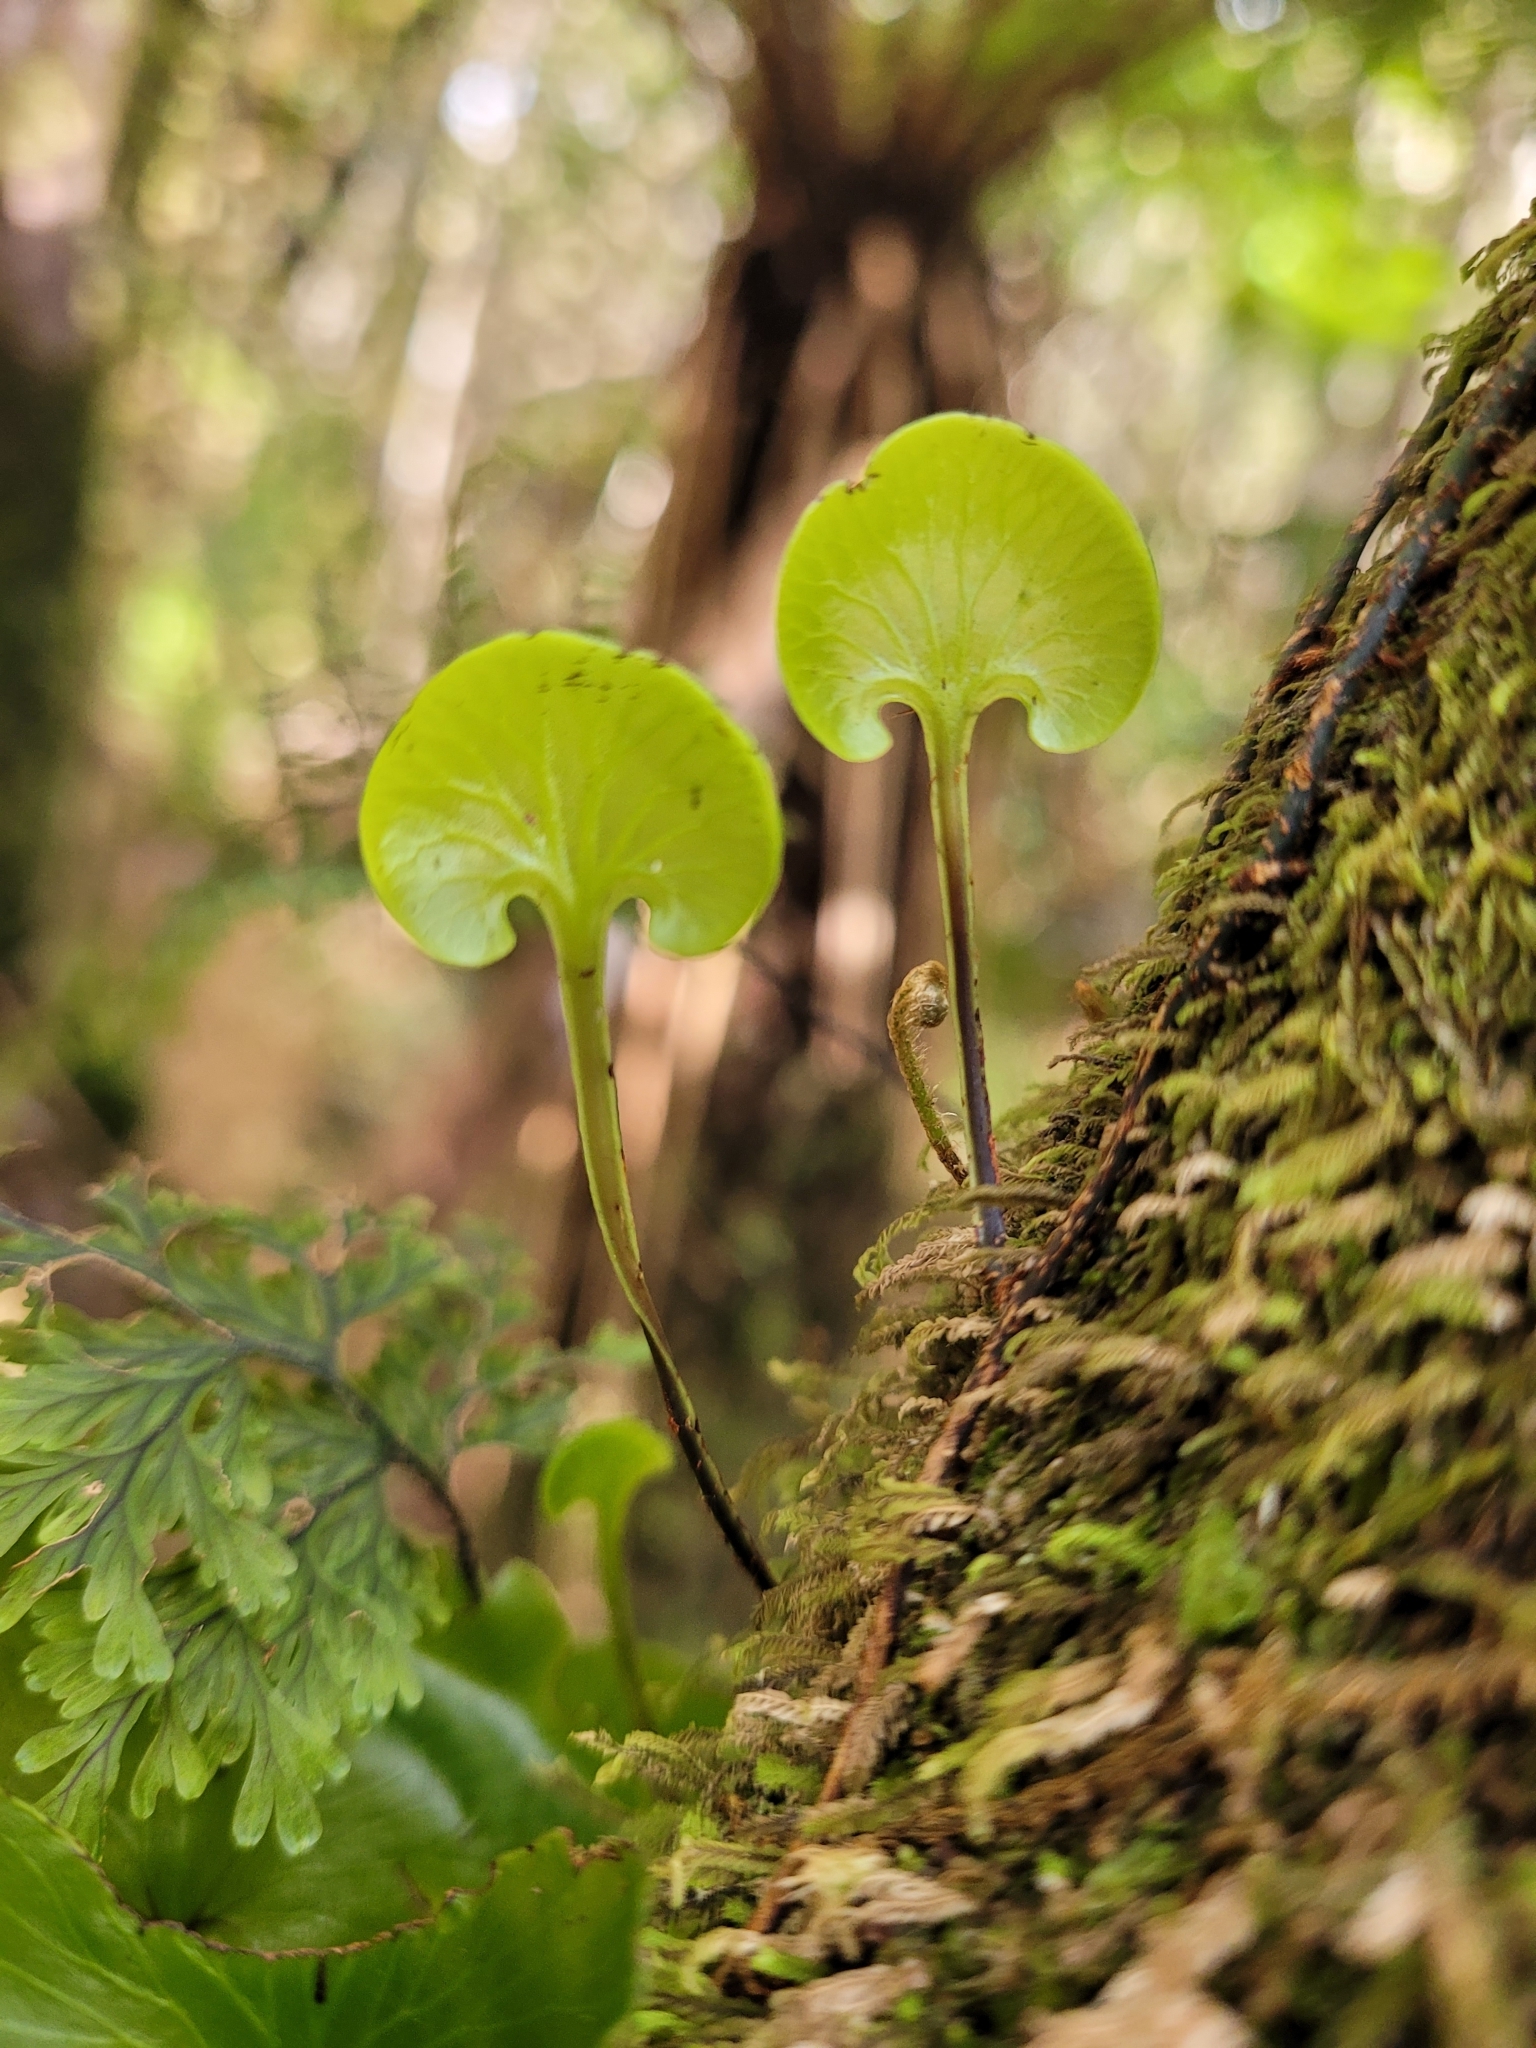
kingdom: Plantae
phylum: Tracheophyta
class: Polypodiopsida
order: Hymenophyllales
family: Hymenophyllaceae
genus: Hymenophyllum
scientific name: Hymenophyllum nephrophyllum
